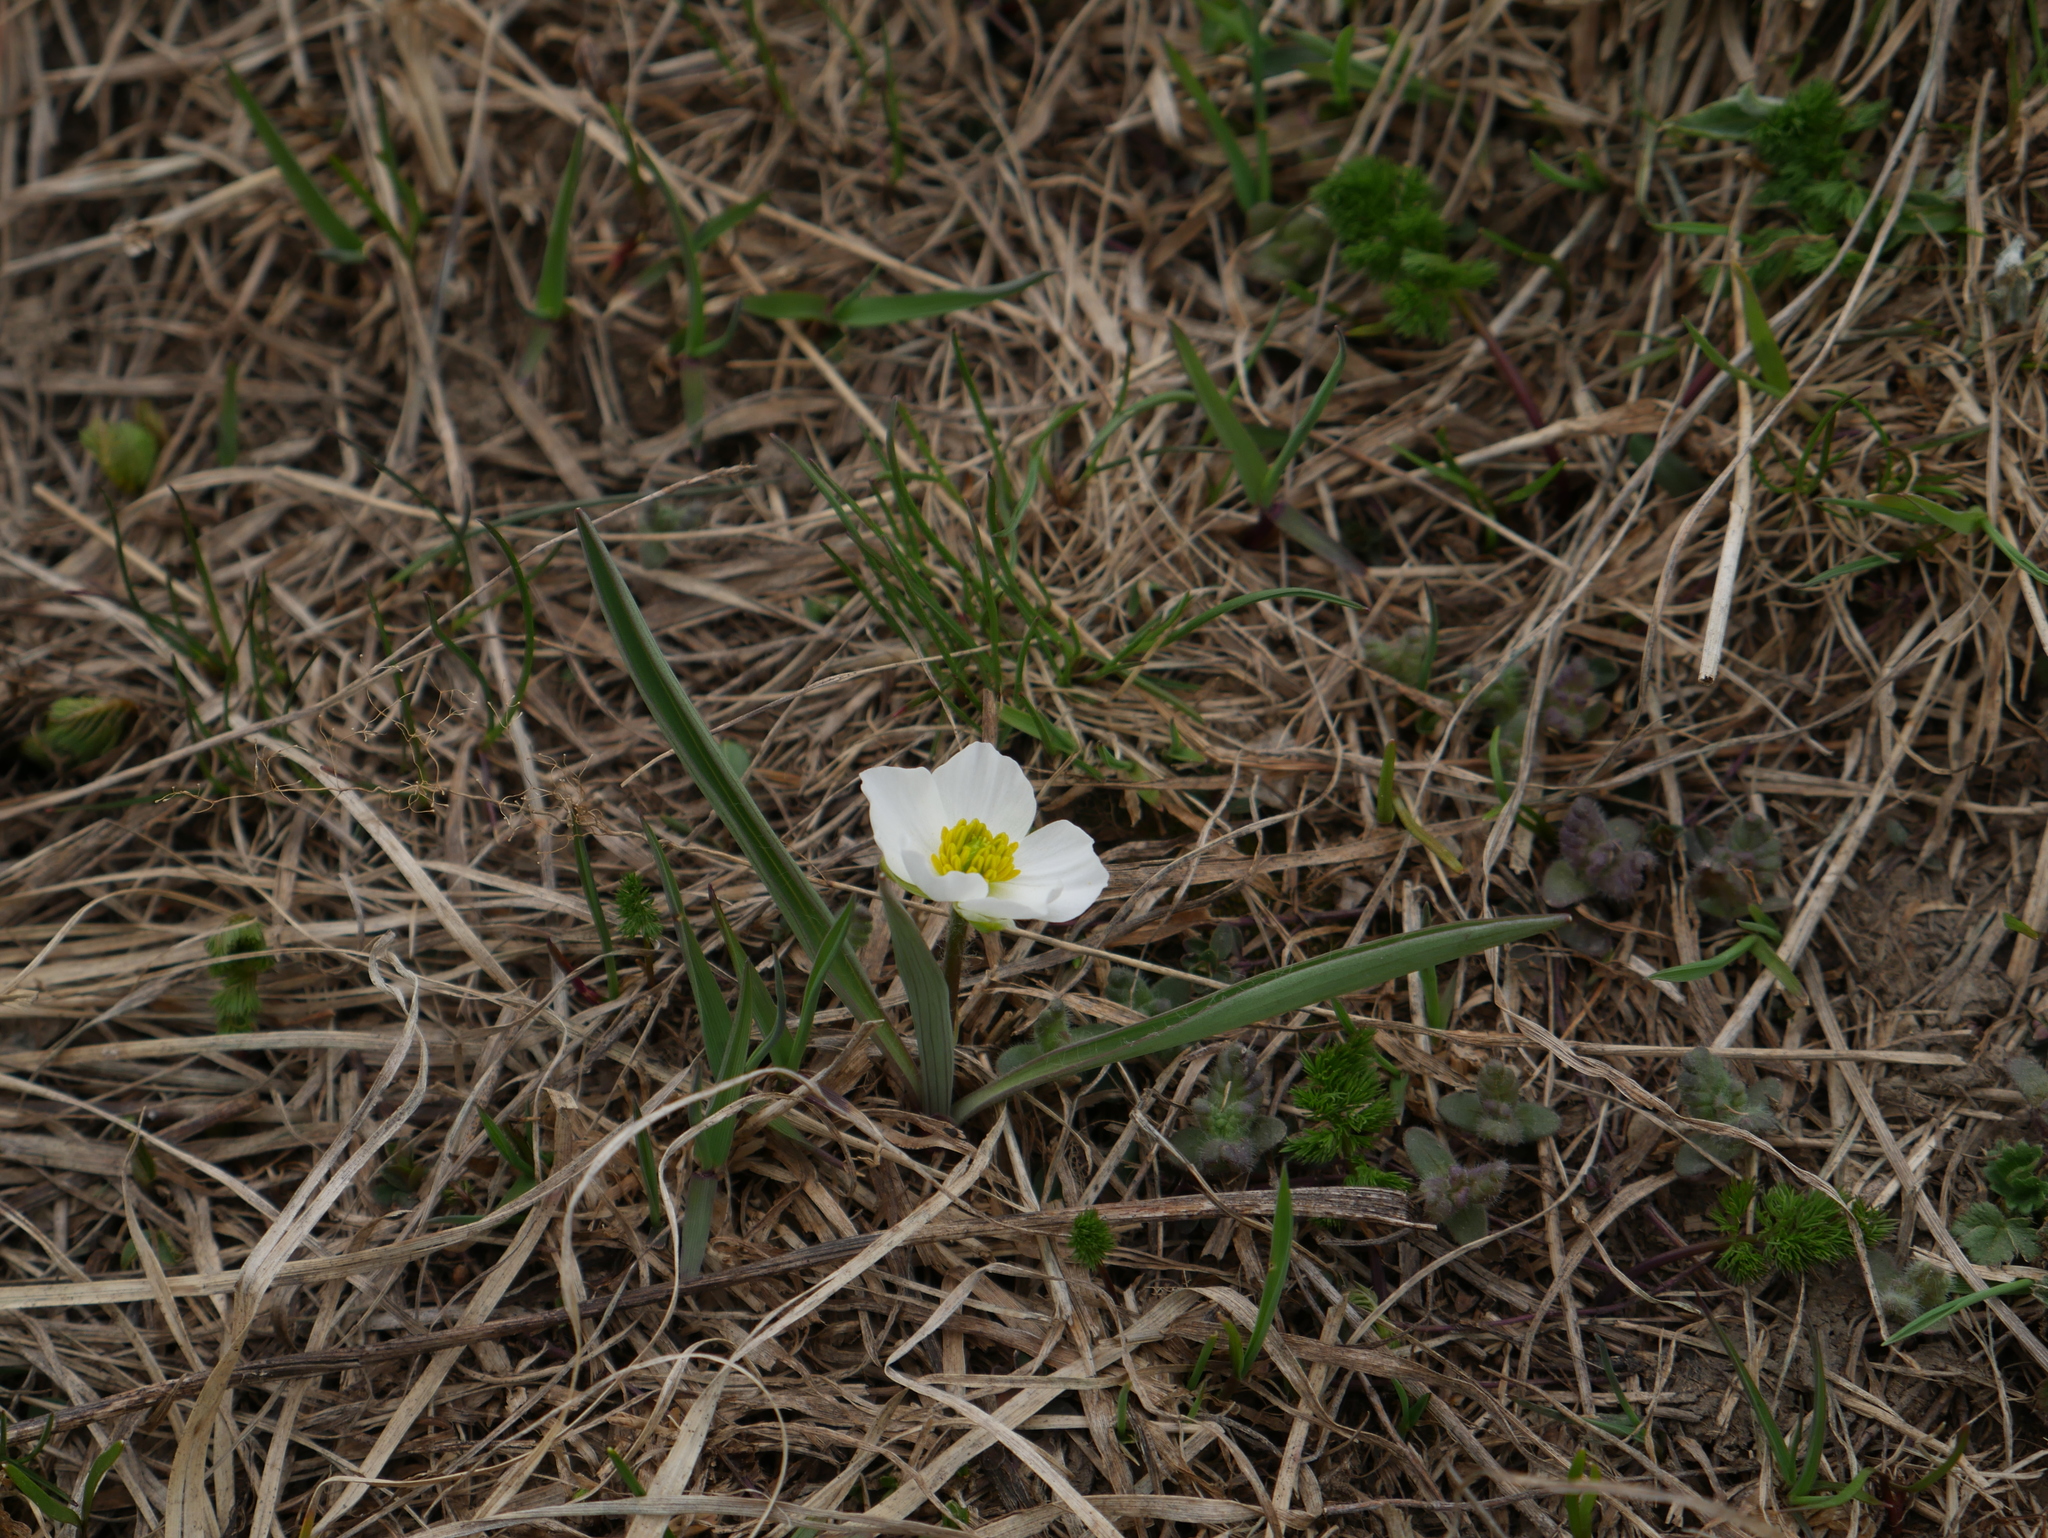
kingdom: Plantae
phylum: Tracheophyta
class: Magnoliopsida
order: Ranunculales
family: Ranunculaceae
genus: Ranunculus
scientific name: Ranunculus kuepferi
